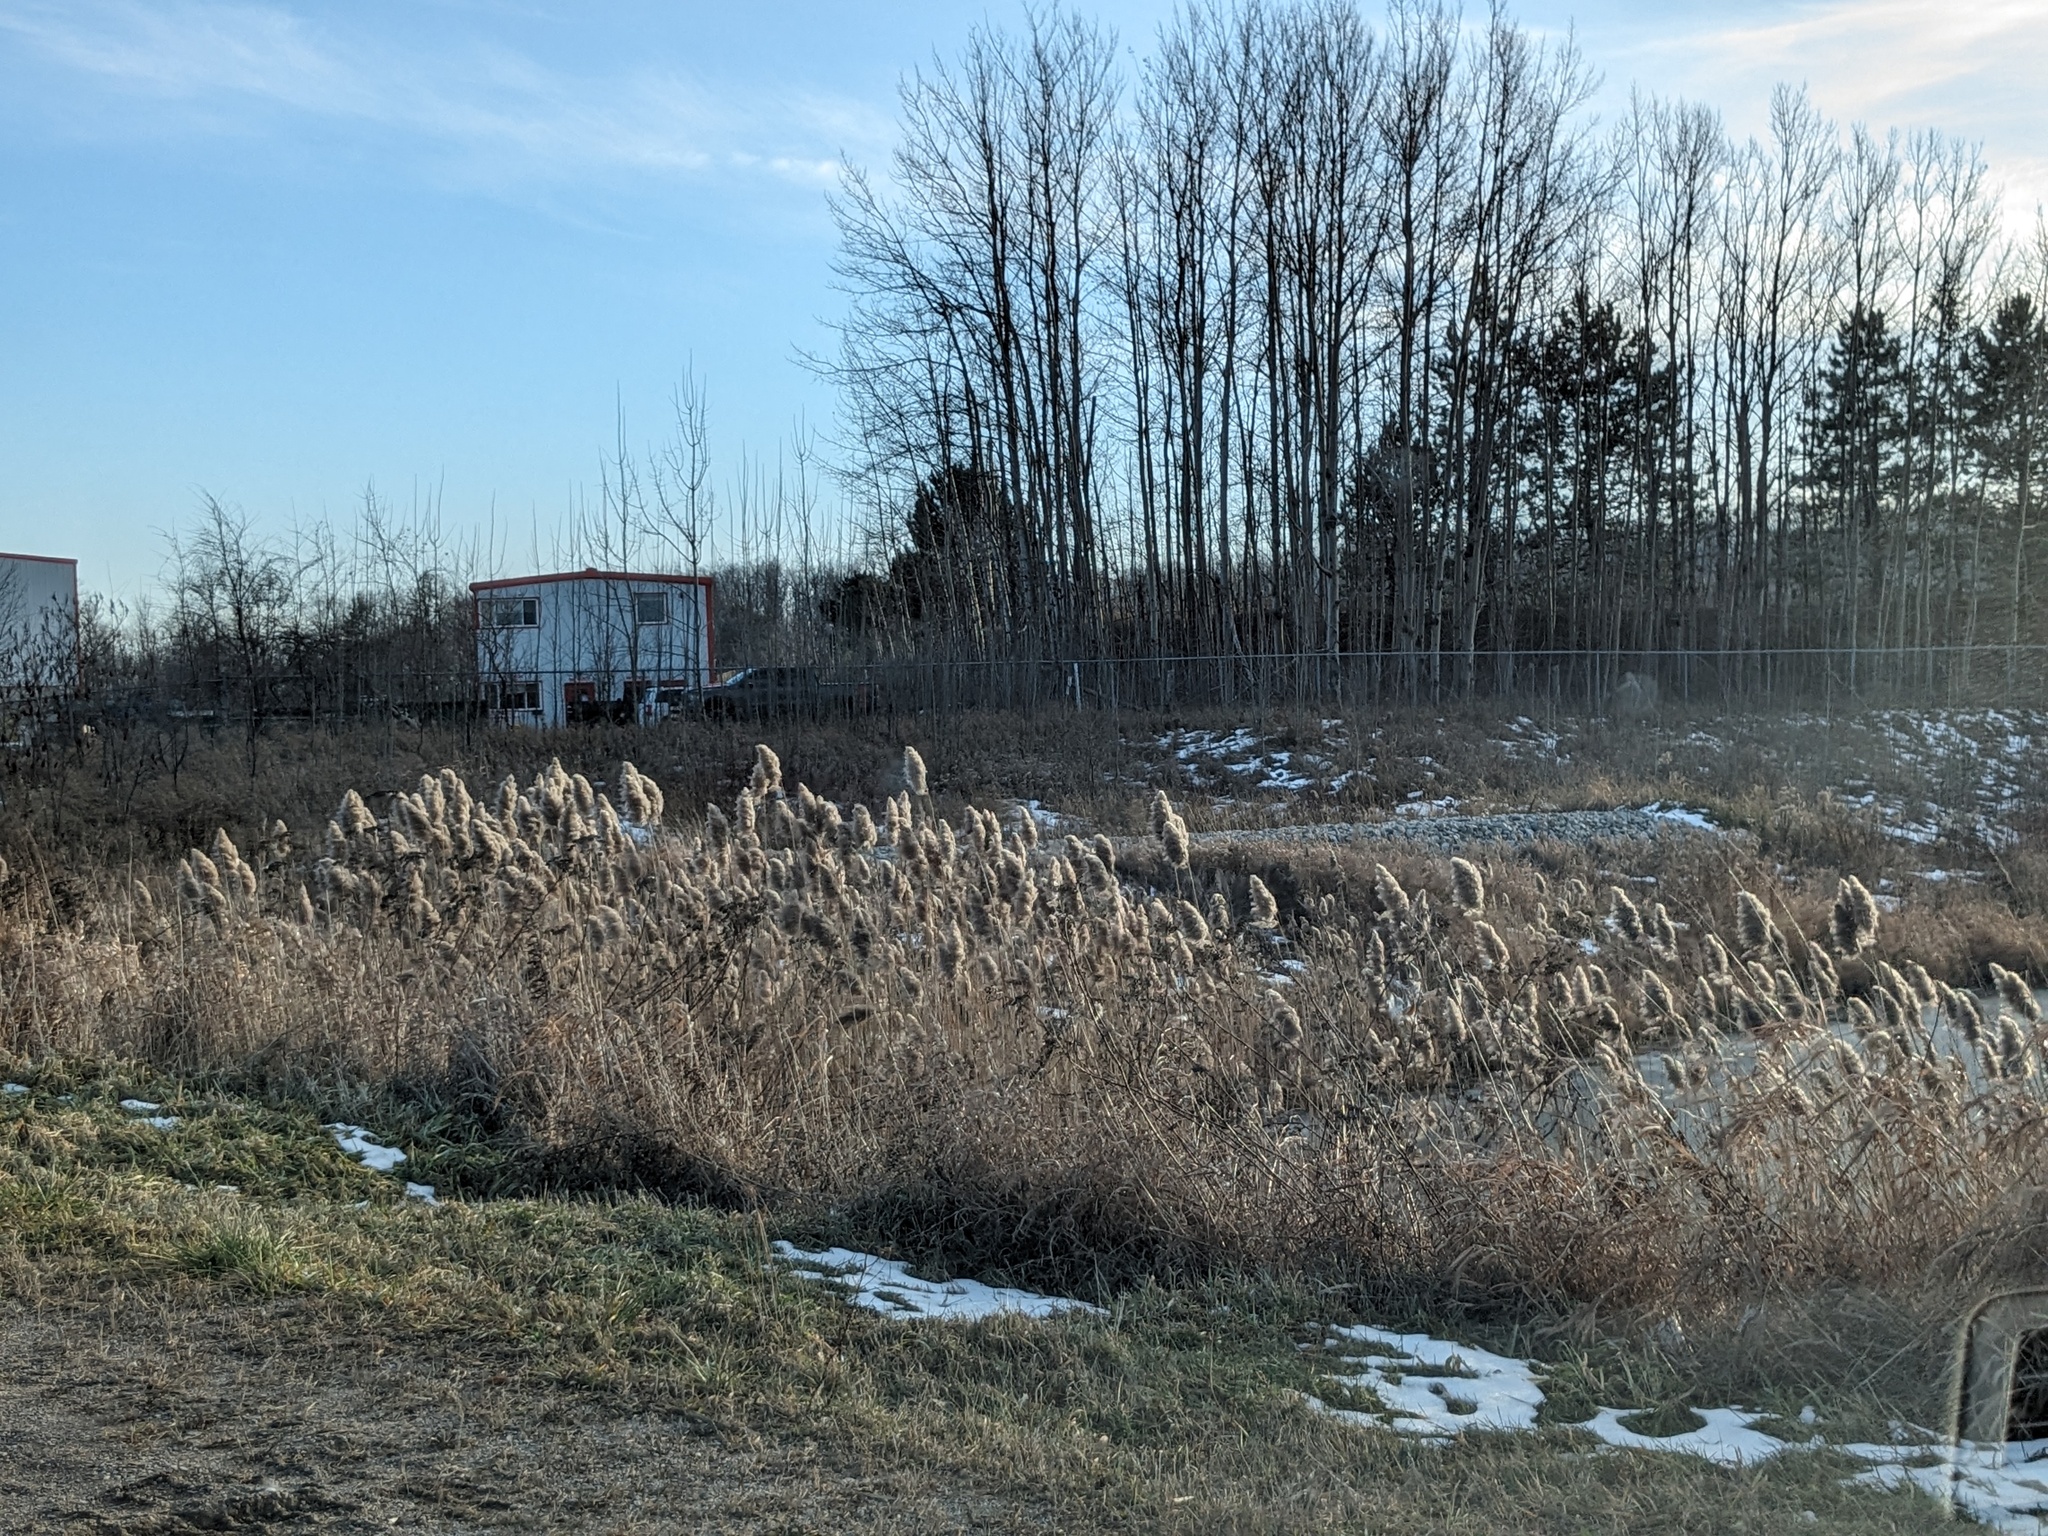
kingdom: Plantae
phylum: Tracheophyta
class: Liliopsida
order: Poales
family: Poaceae
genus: Phragmites
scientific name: Phragmites australis
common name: Common reed
